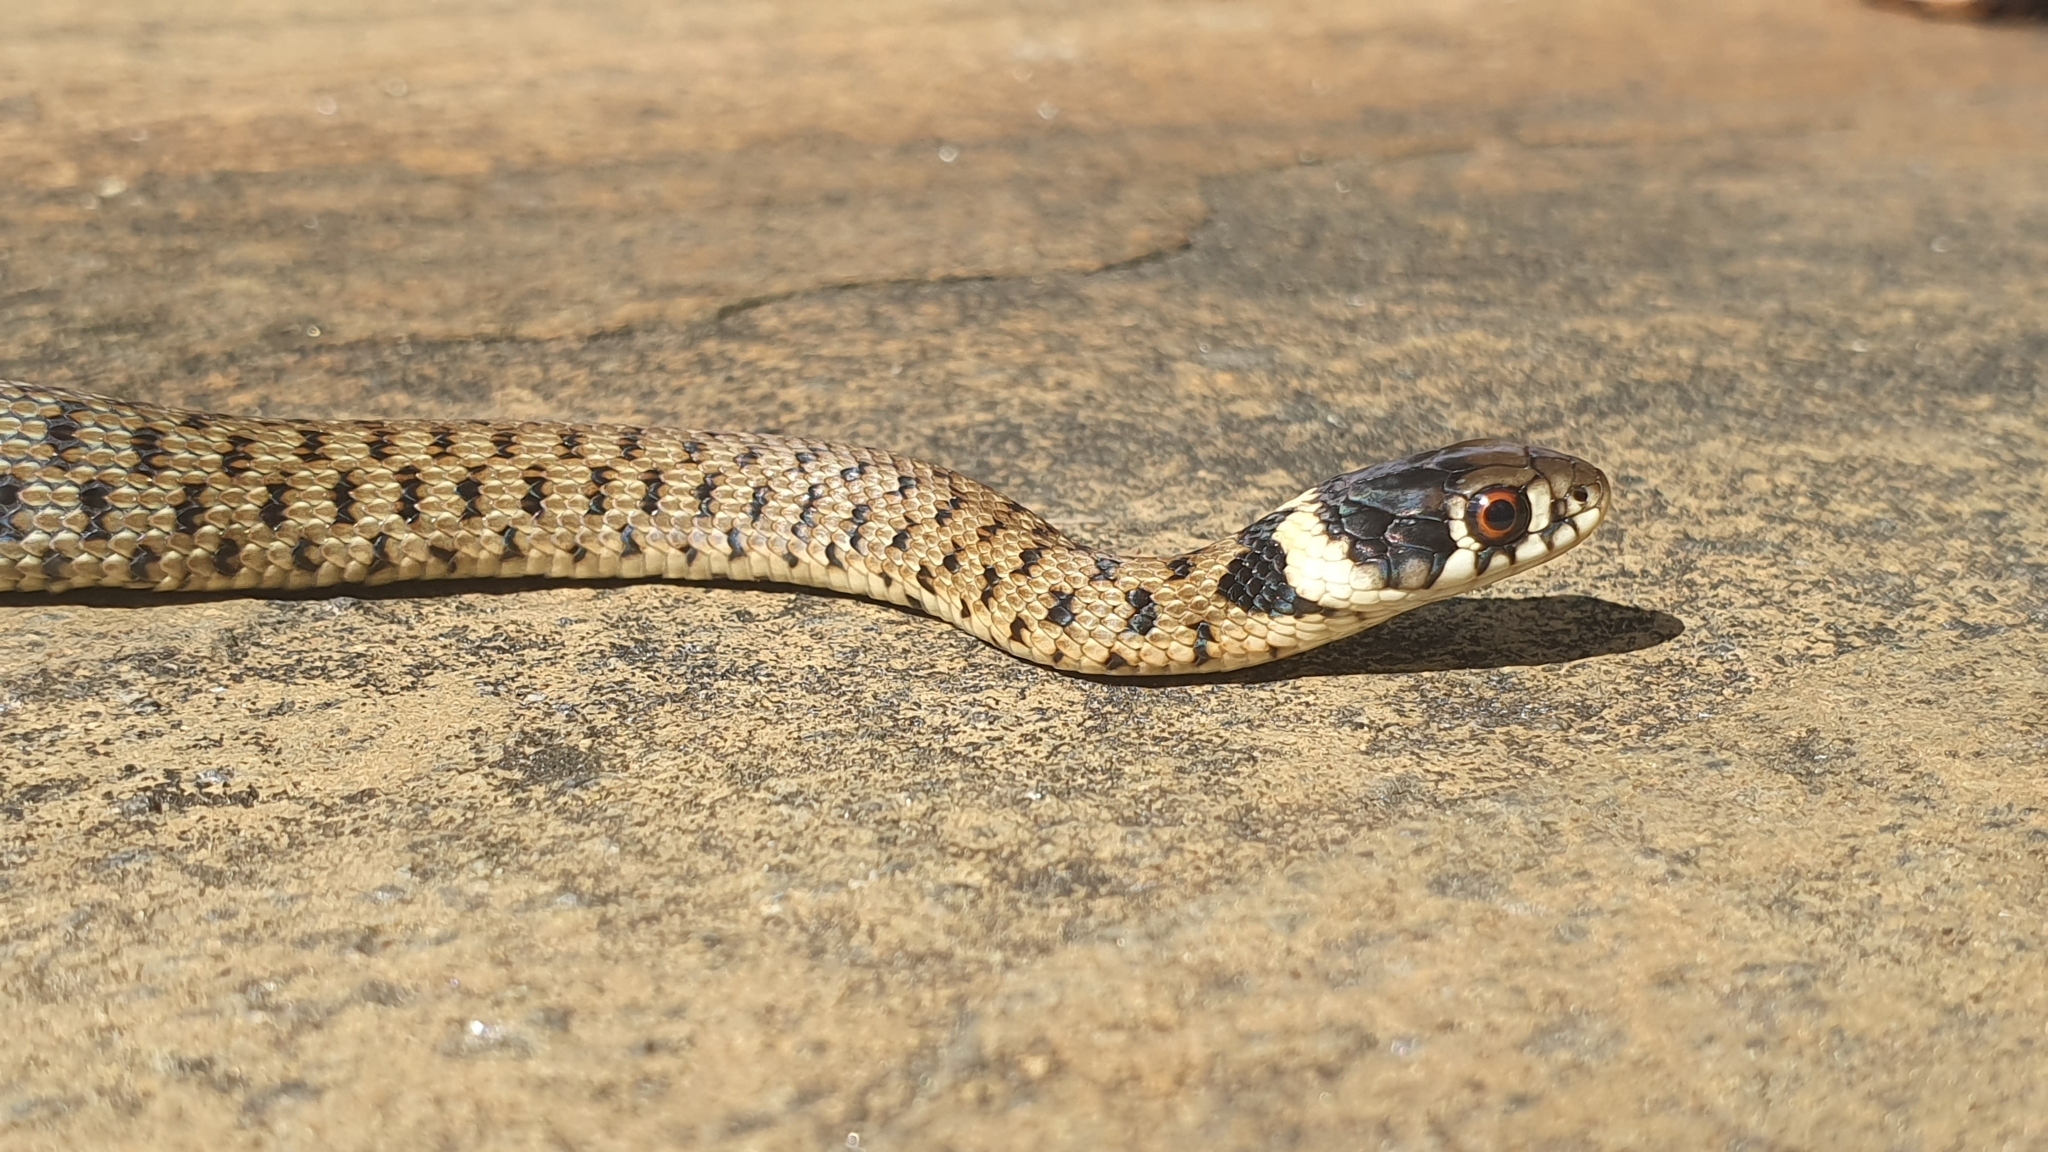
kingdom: Animalia
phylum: Chordata
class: Squamata
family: Colubridae
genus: Natrix
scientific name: Natrix astreptophora
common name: Red-eyed grass snake
